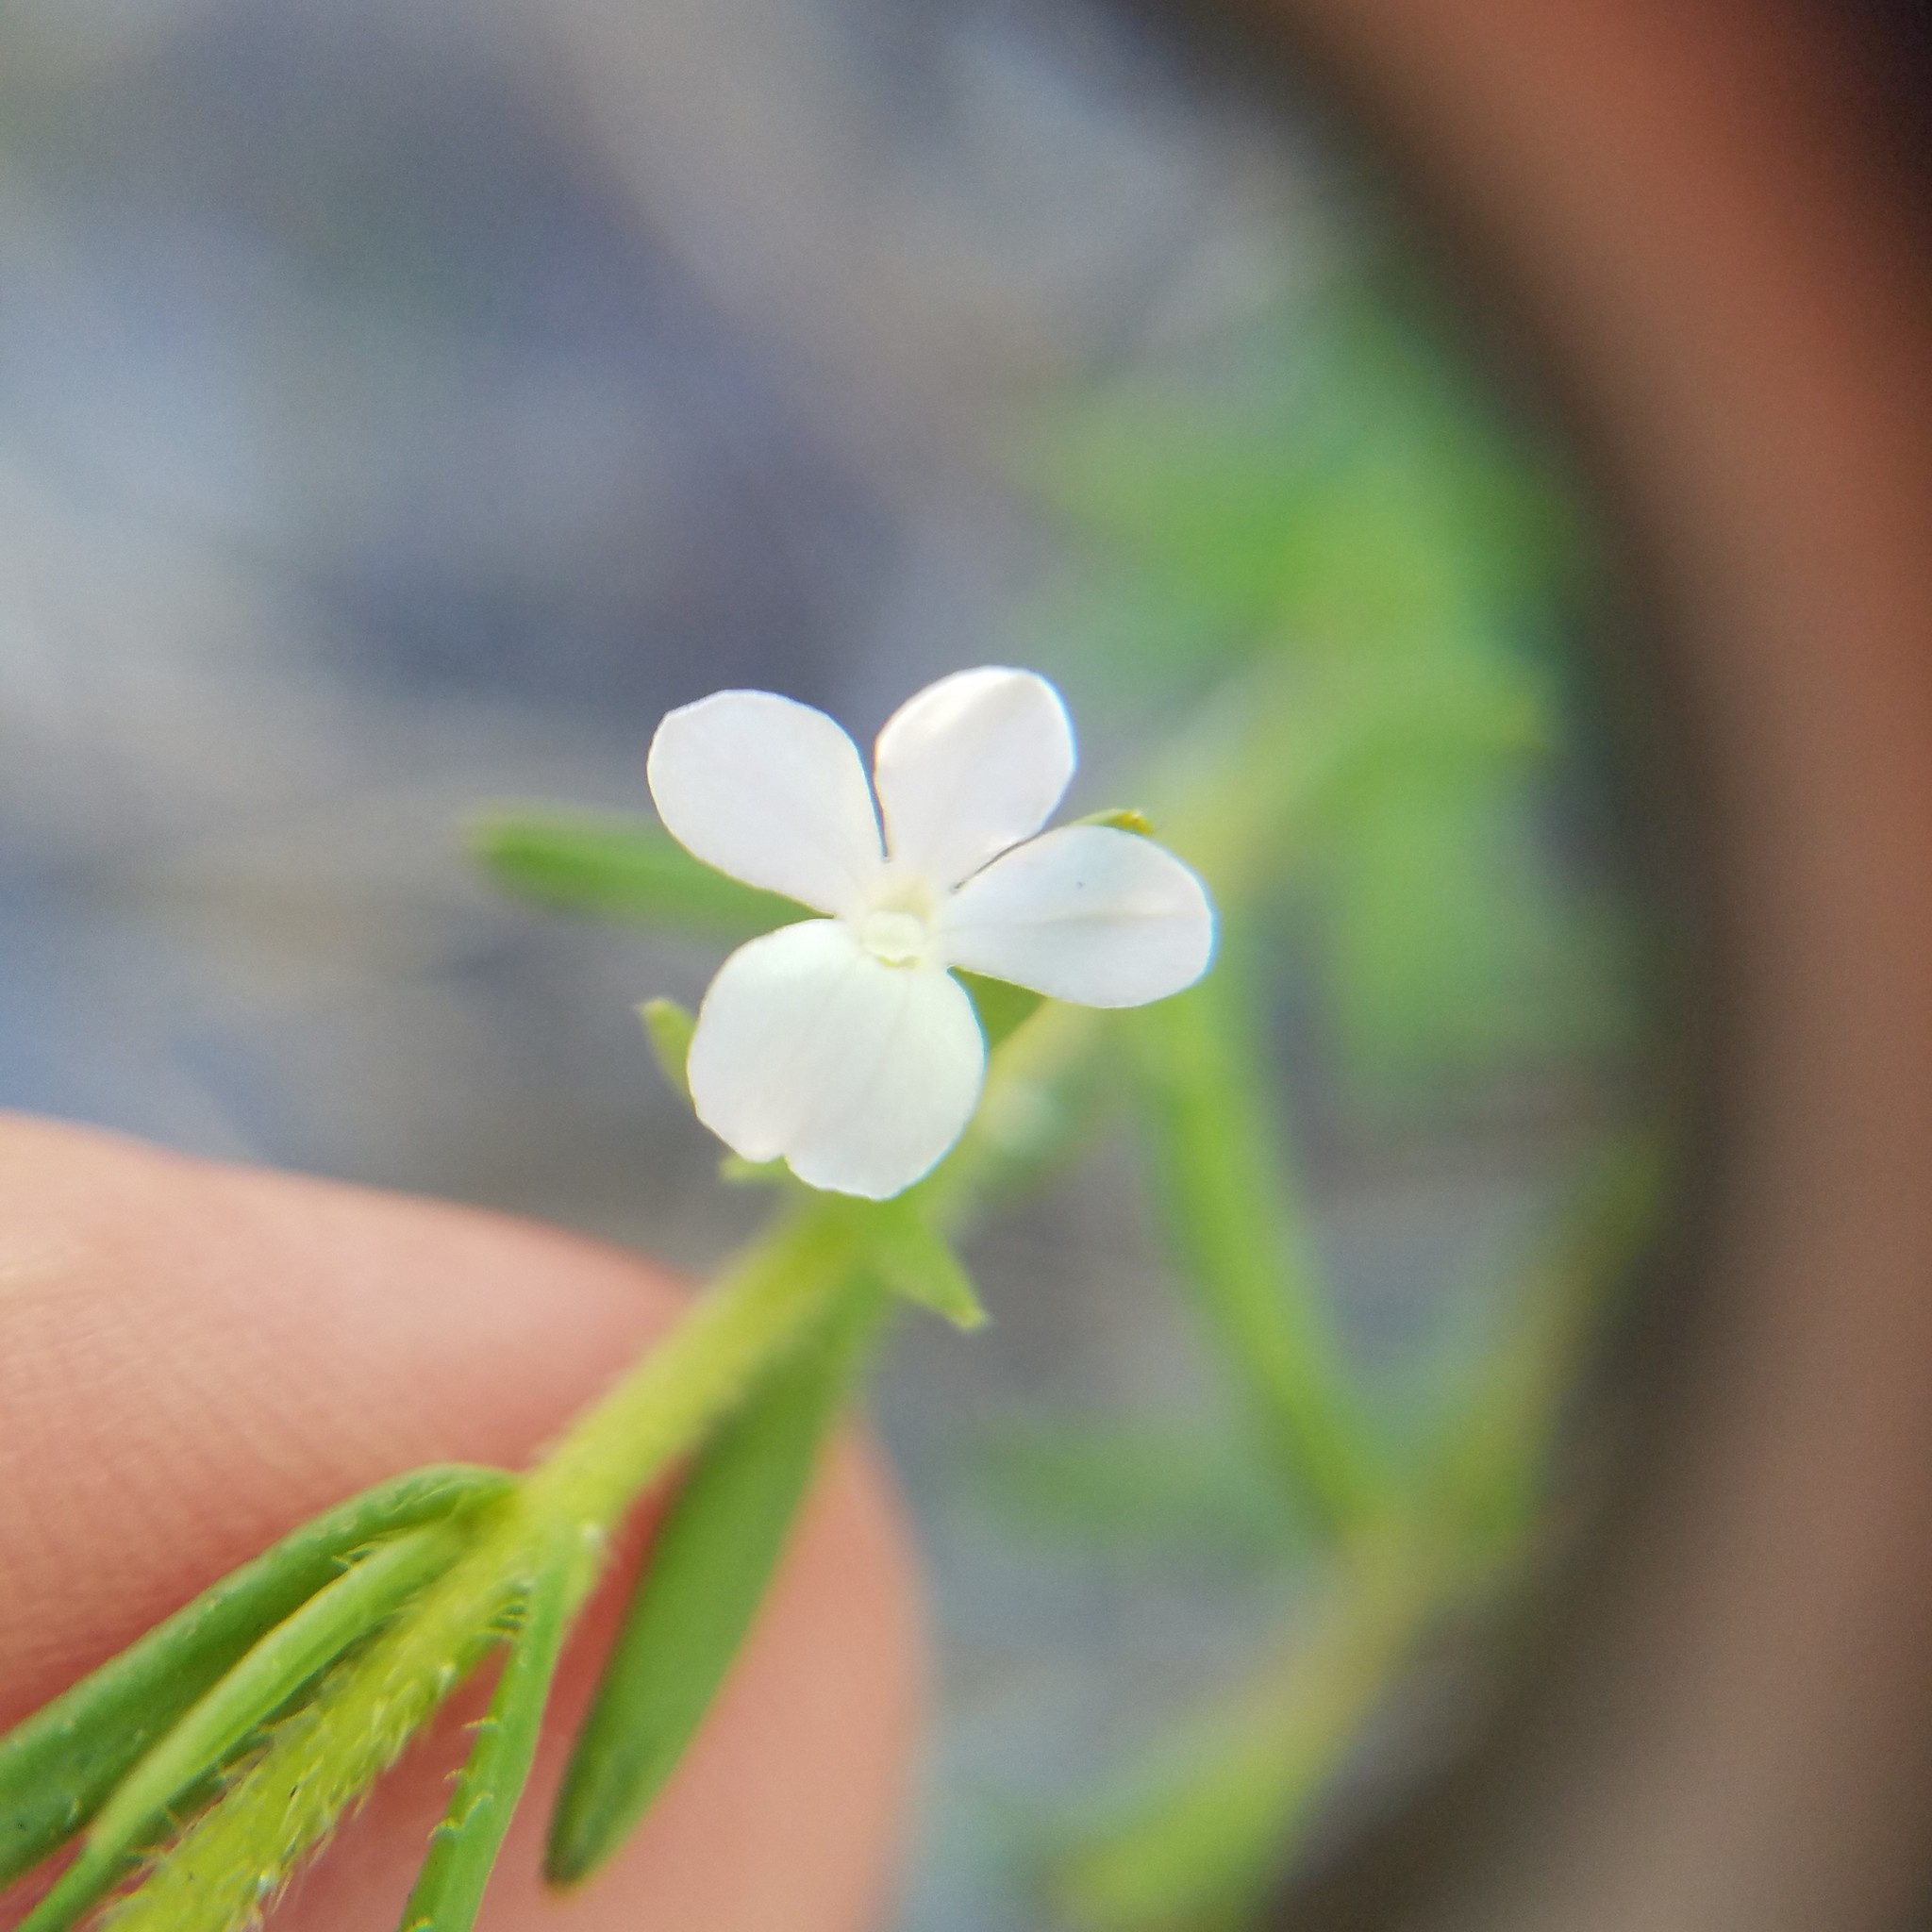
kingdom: Plantae
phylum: Tracheophyta
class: Magnoliopsida
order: Lamiales
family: Plantaginaceae
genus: Gratiola
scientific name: Gratiola hispida
